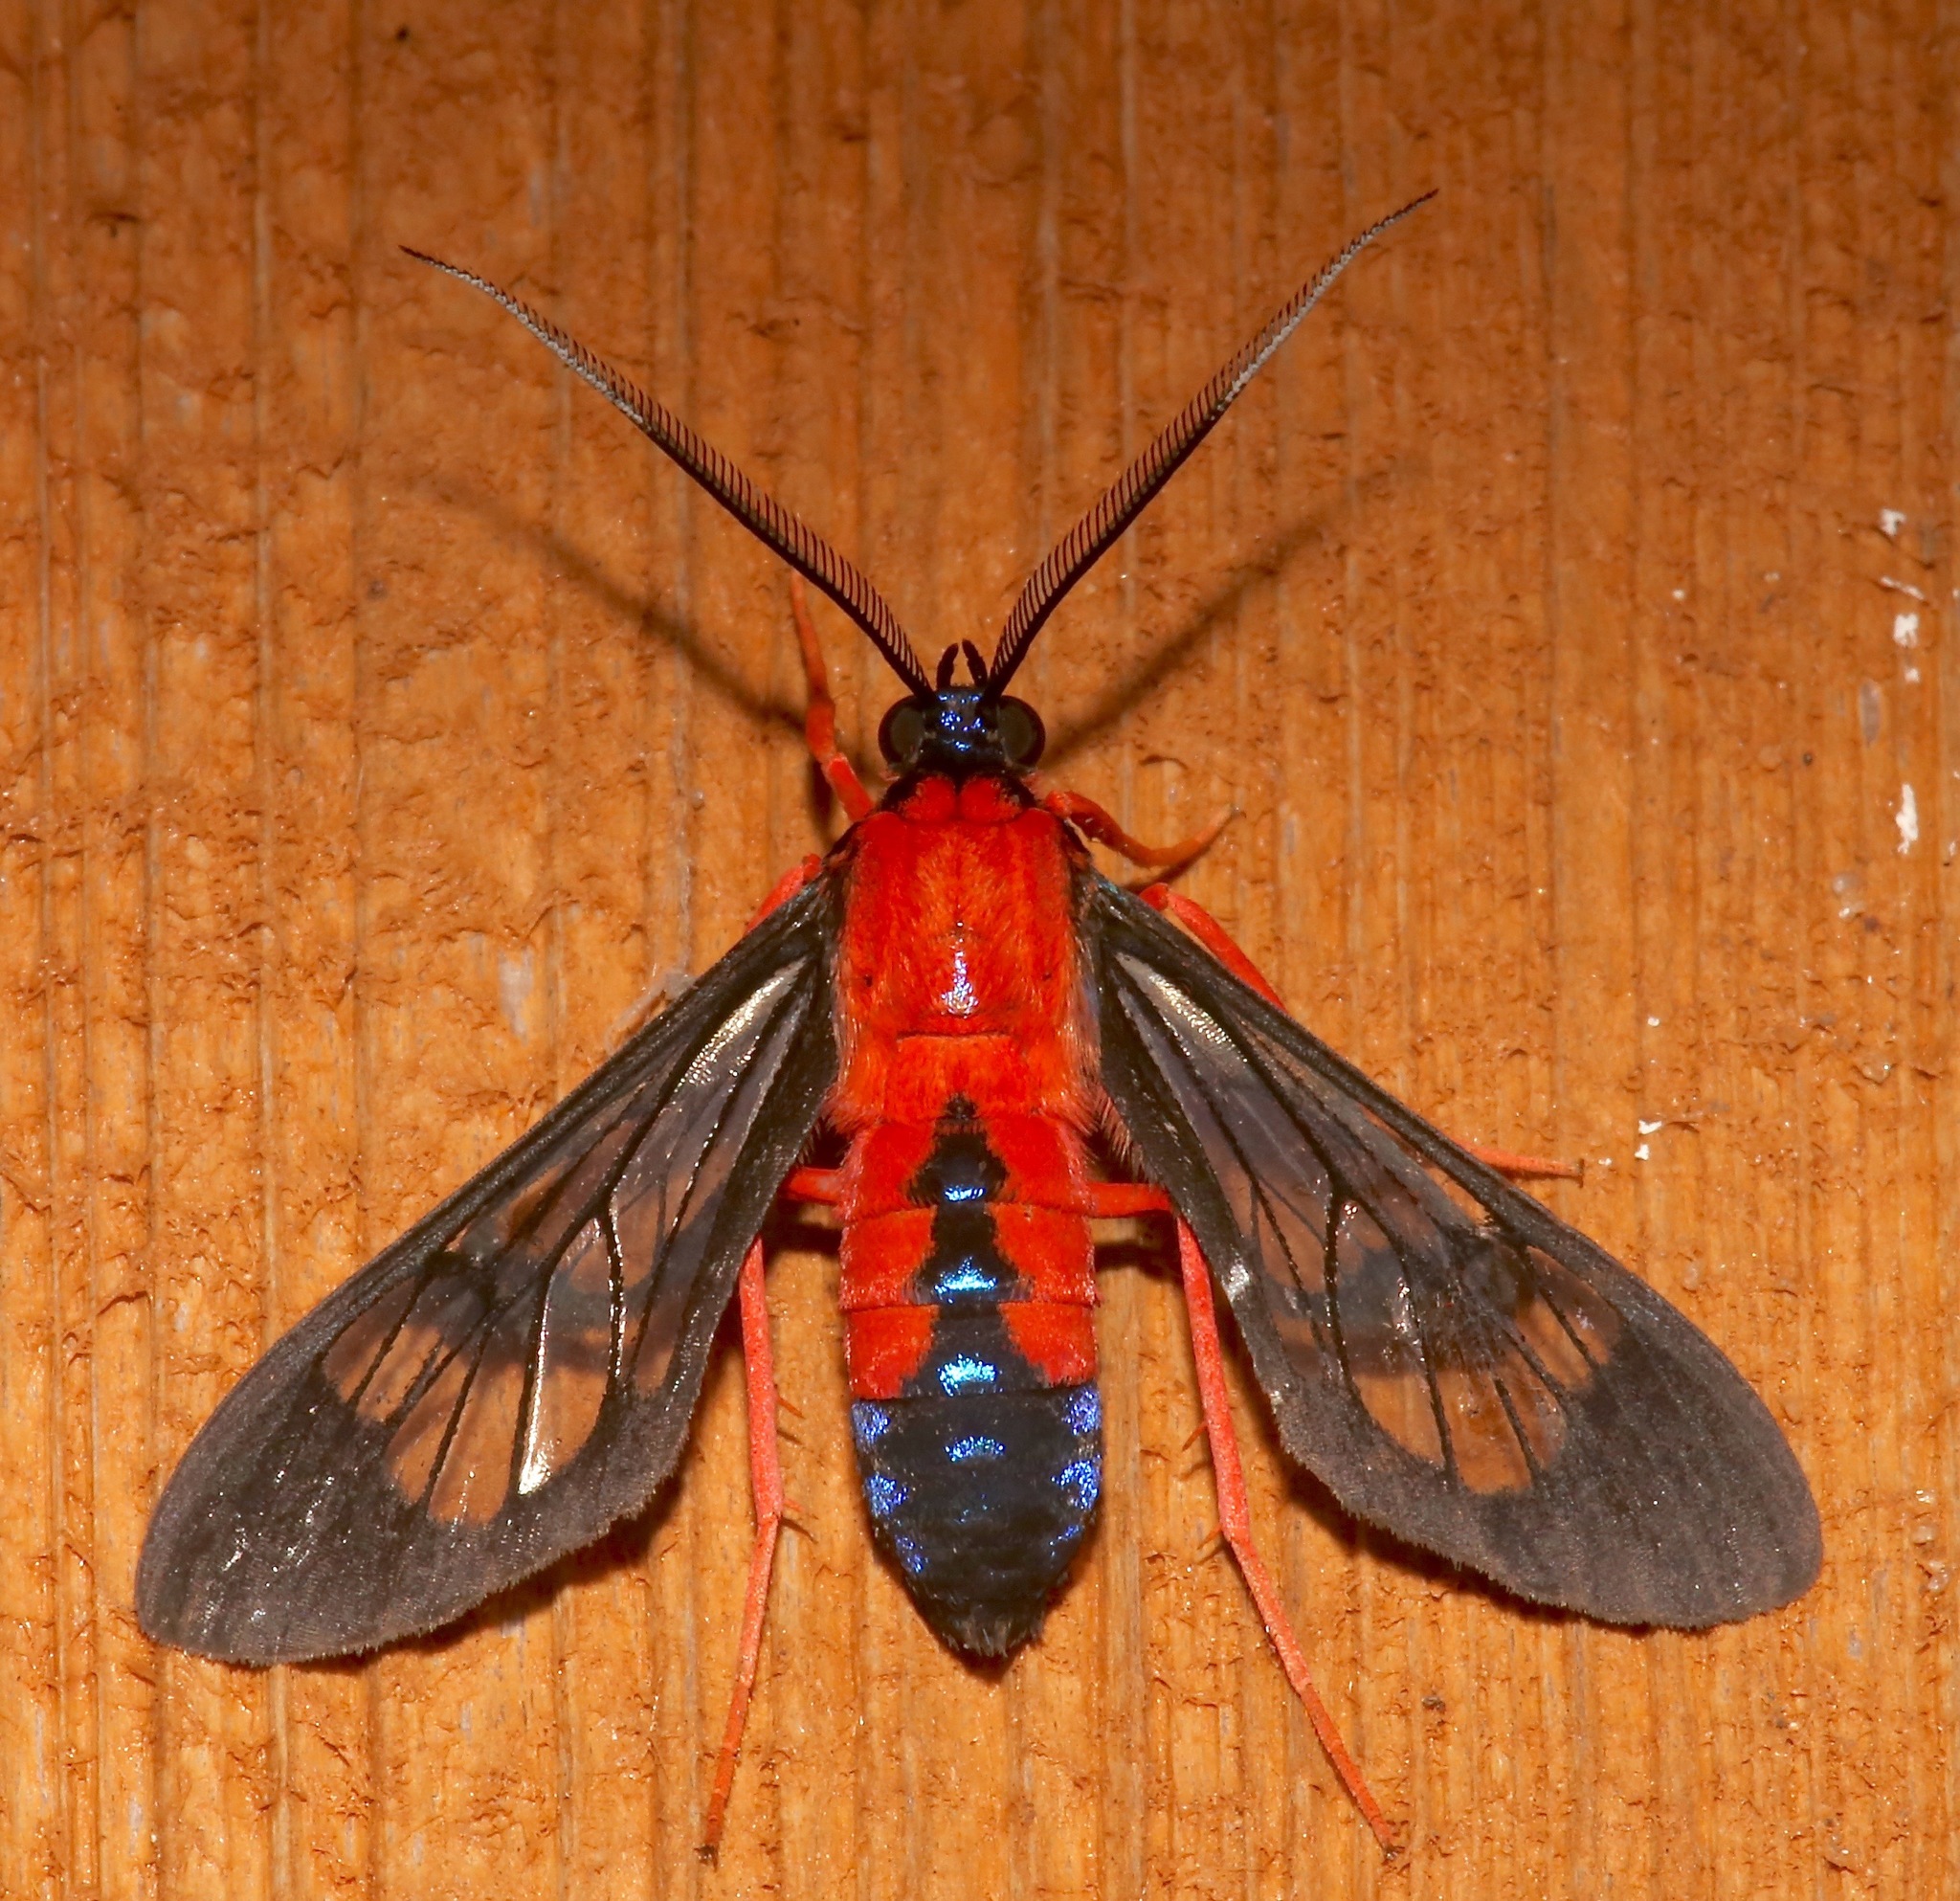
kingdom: Animalia
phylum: Arthropoda
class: Insecta
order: Lepidoptera
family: Erebidae
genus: Cosmosoma
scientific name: Cosmosoma myrodora
